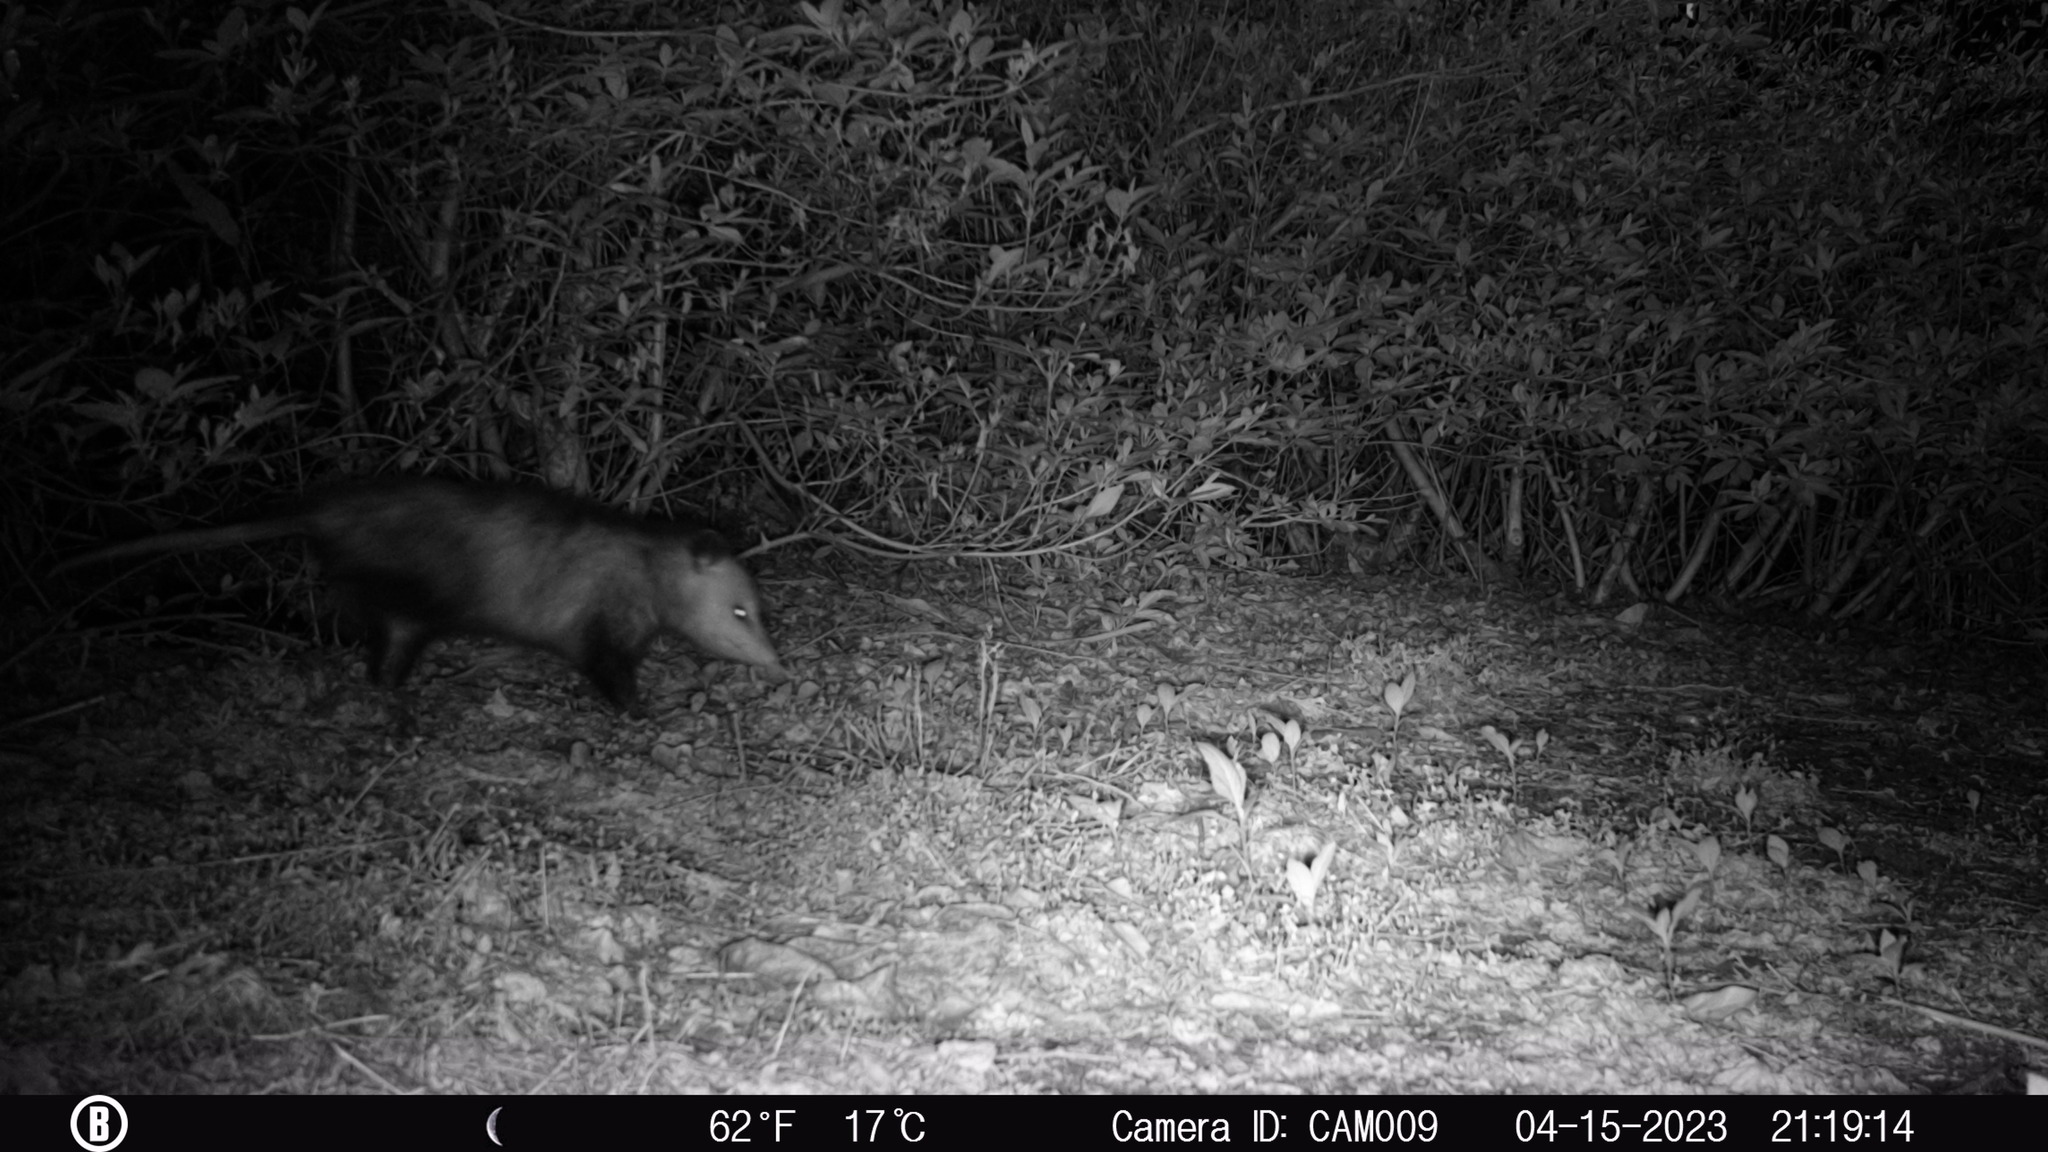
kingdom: Animalia
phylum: Chordata
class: Mammalia
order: Didelphimorphia
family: Didelphidae
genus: Didelphis
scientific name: Didelphis virginiana
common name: Virginia opossum
